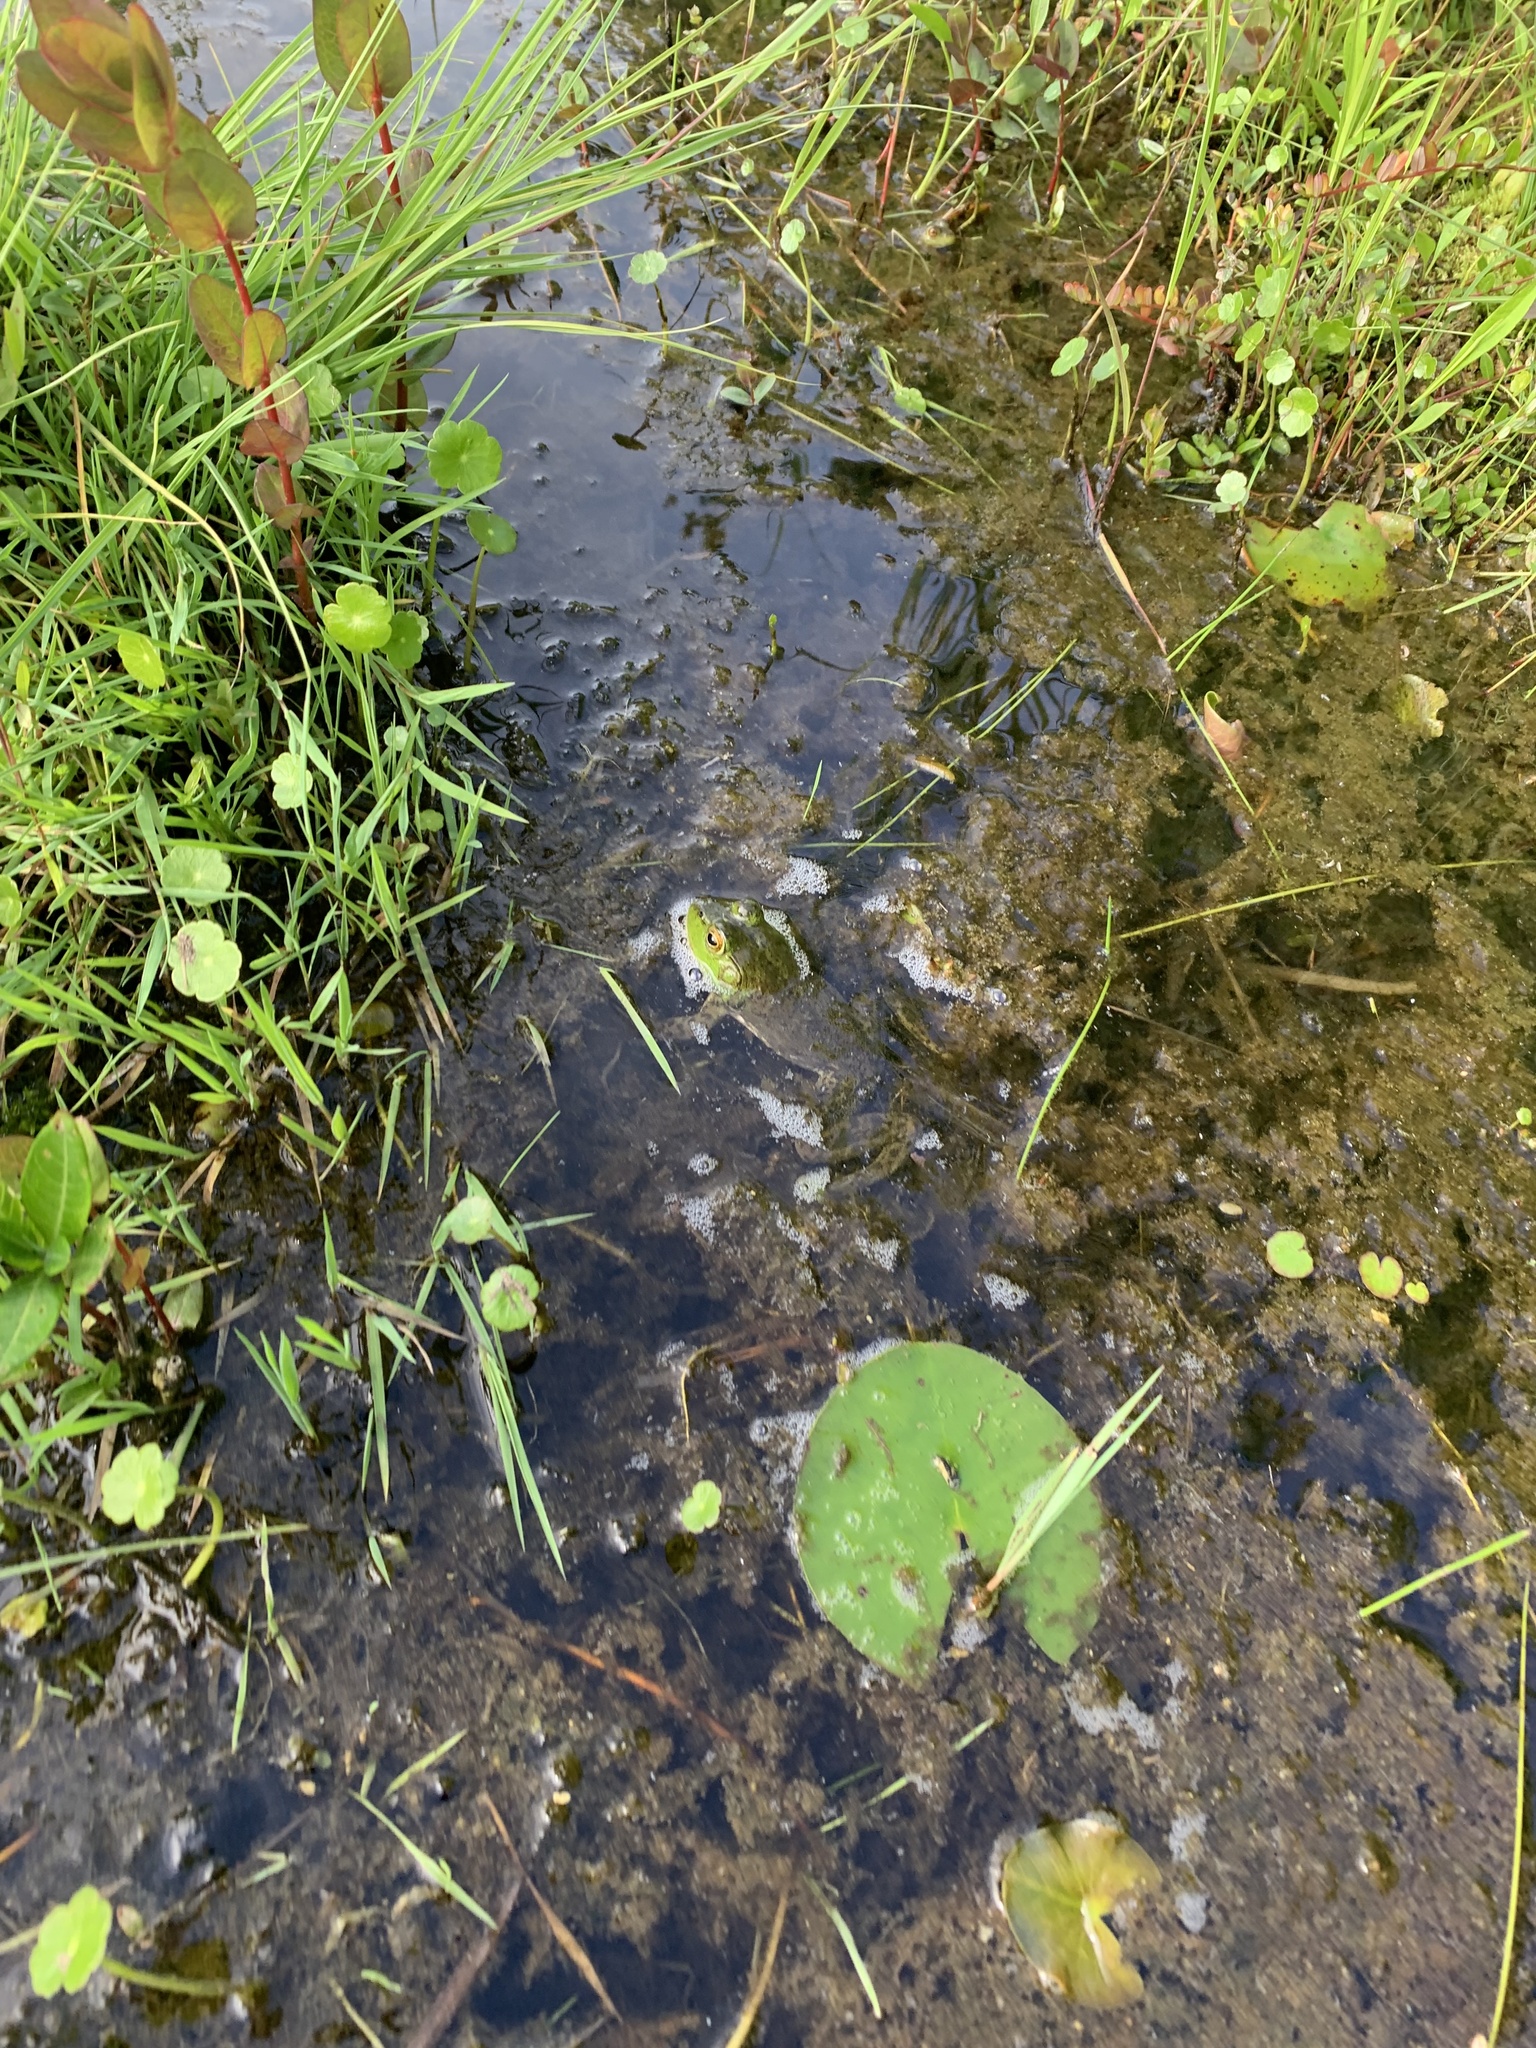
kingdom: Animalia
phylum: Chordata
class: Amphibia
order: Anura
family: Ranidae
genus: Lithobates
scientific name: Lithobates catesbeianus
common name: American bullfrog
